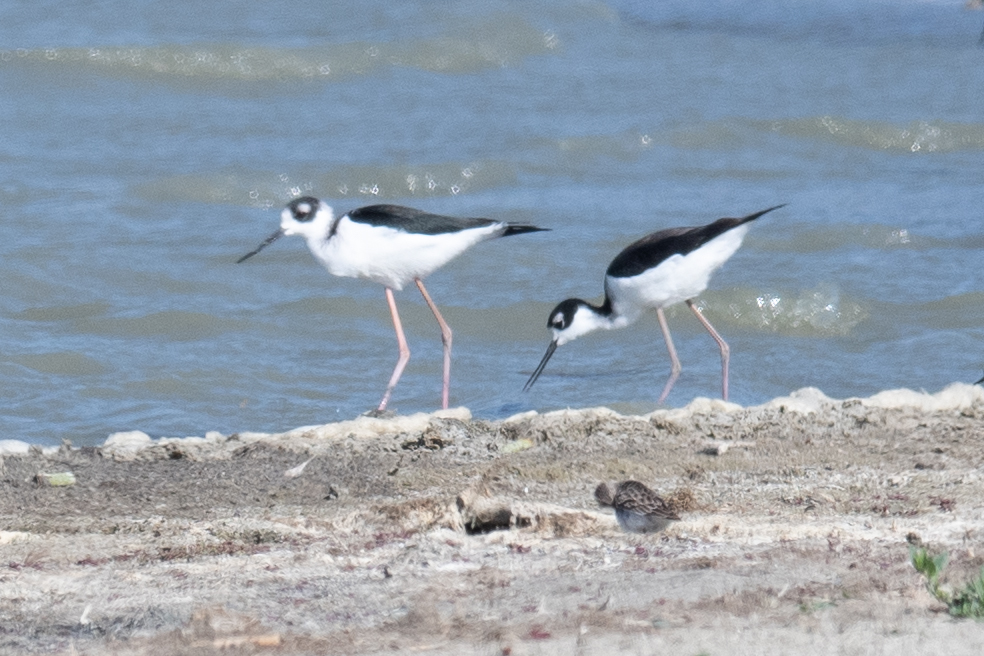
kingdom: Animalia
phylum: Chordata
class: Aves
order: Charadriiformes
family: Recurvirostridae
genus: Himantopus
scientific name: Himantopus mexicanus
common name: Black-necked stilt
